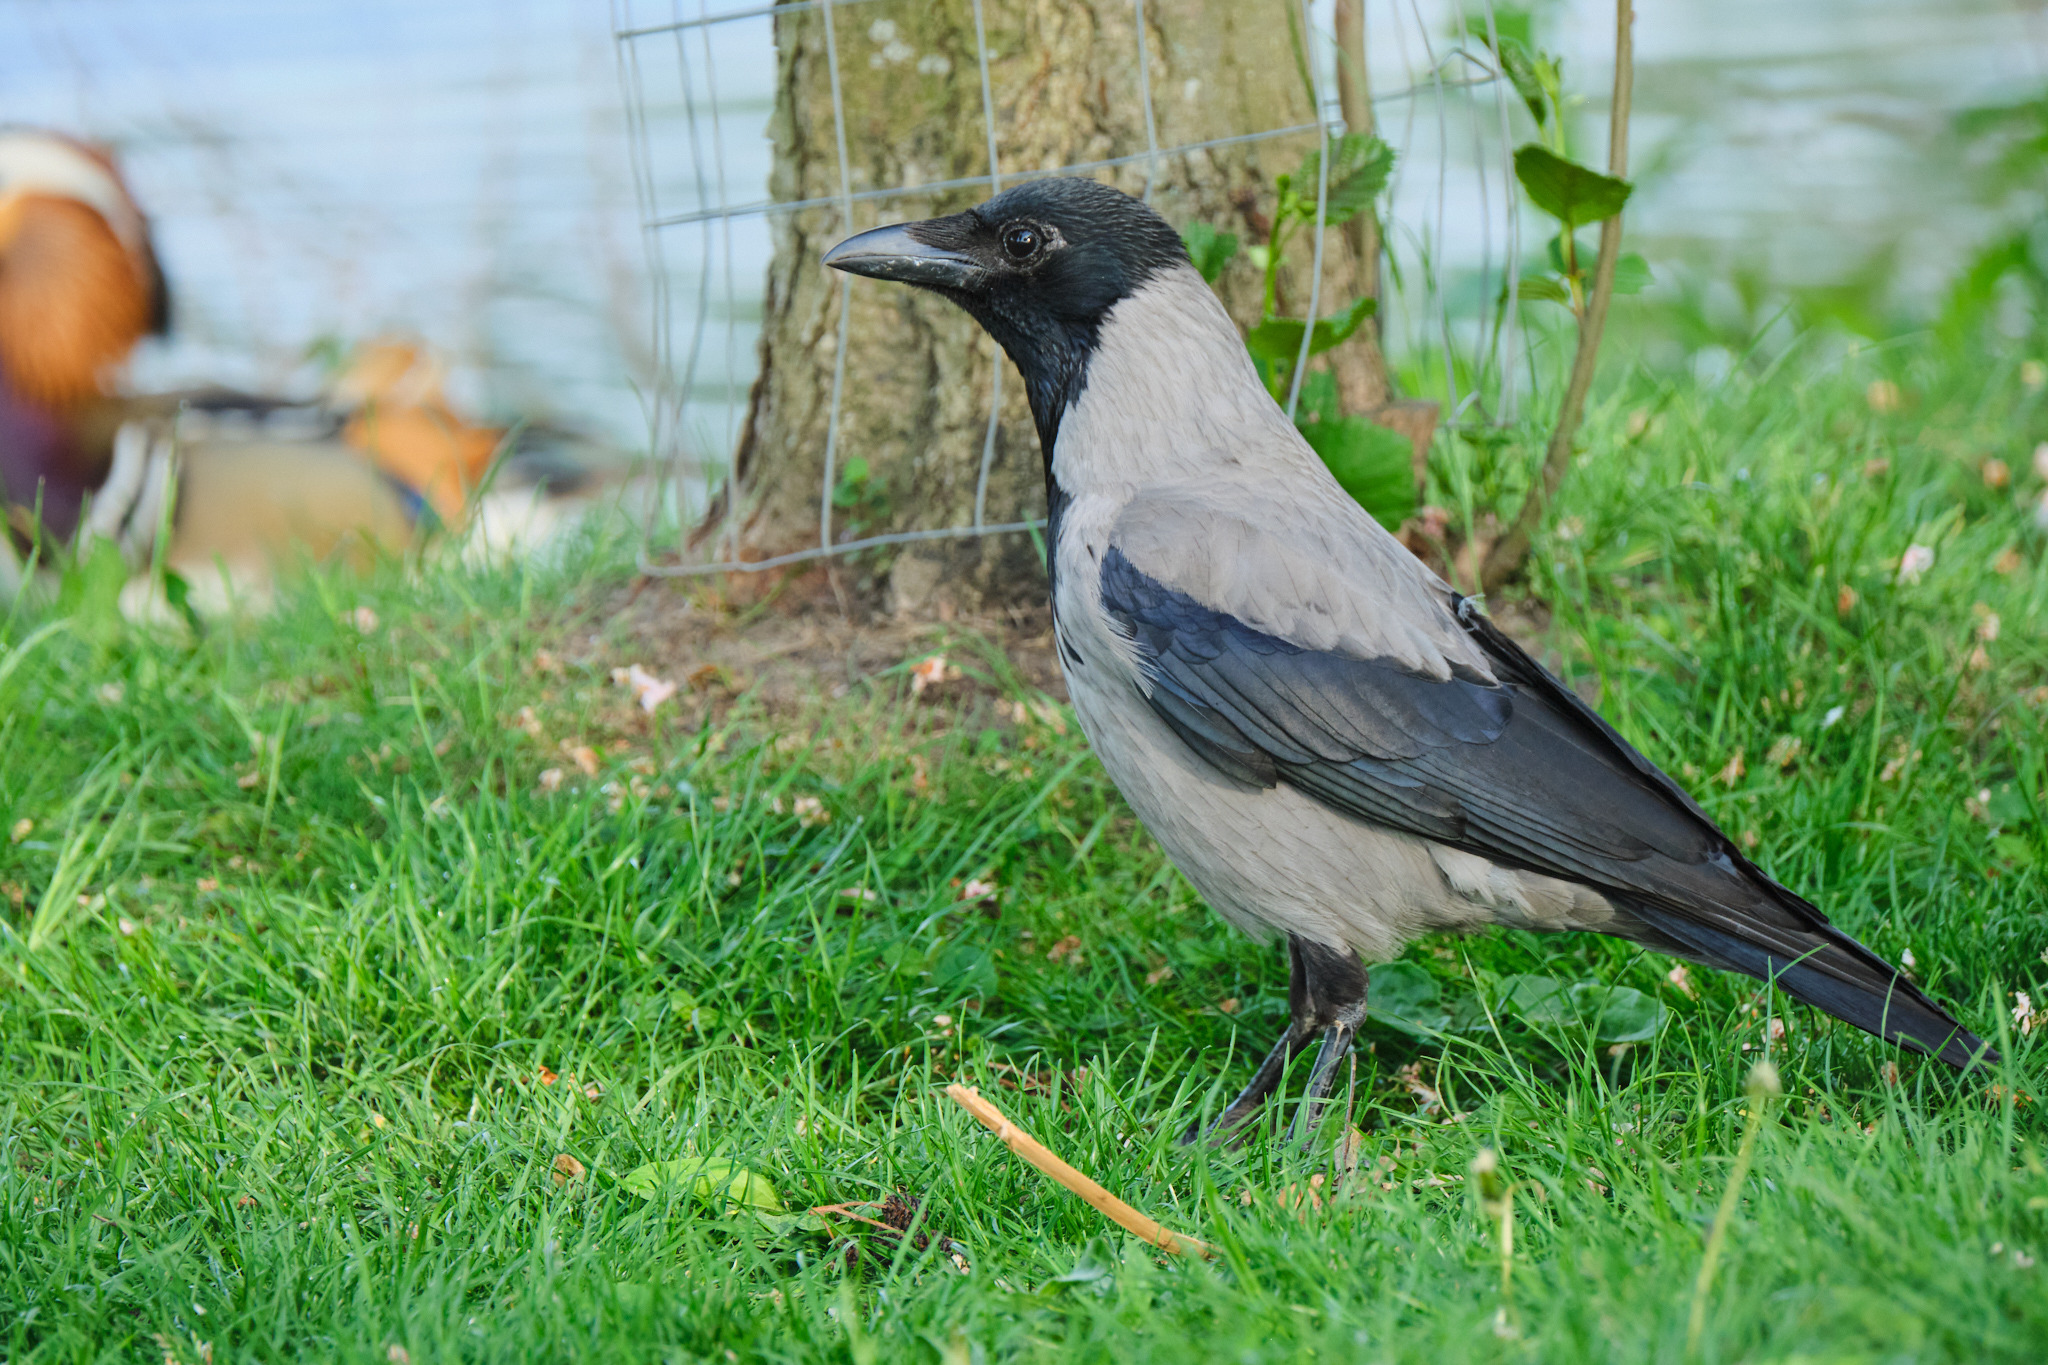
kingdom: Animalia
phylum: Chordata
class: Aves
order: Passeriformes
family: Corvidae
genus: Corvus
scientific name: Corvus cornix
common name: Hooded crow
